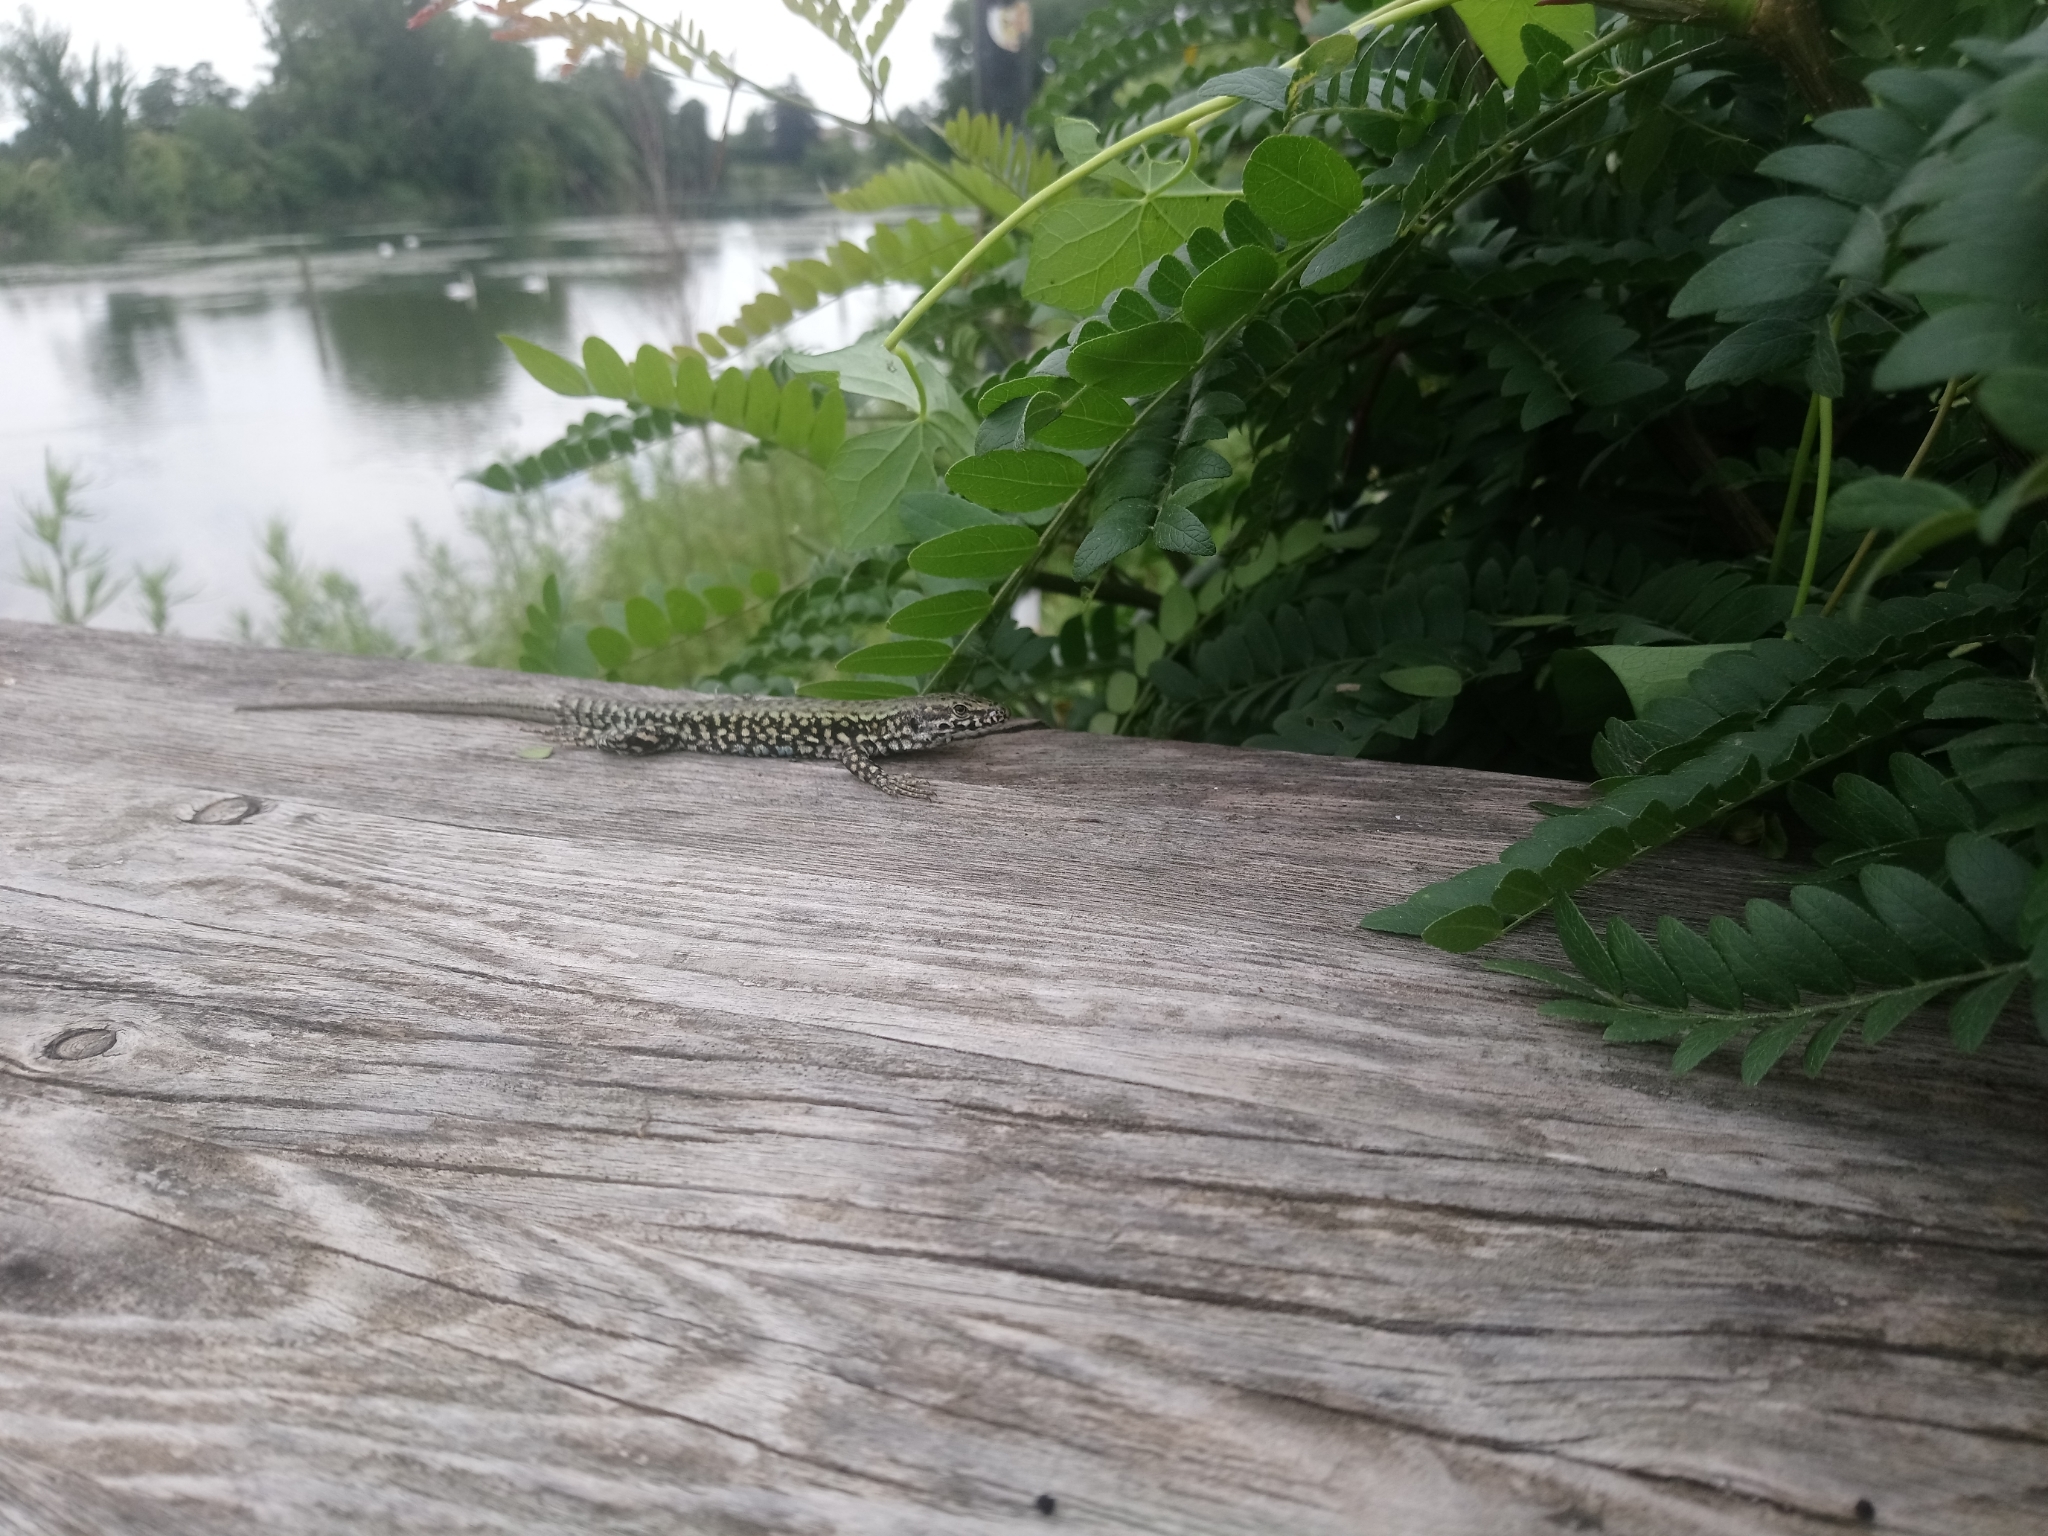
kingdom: Animalia
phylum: Chordata
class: Squamata
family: Lacertidae
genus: Podarcis
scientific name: Podarcis muralis
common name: Common wall lizard
